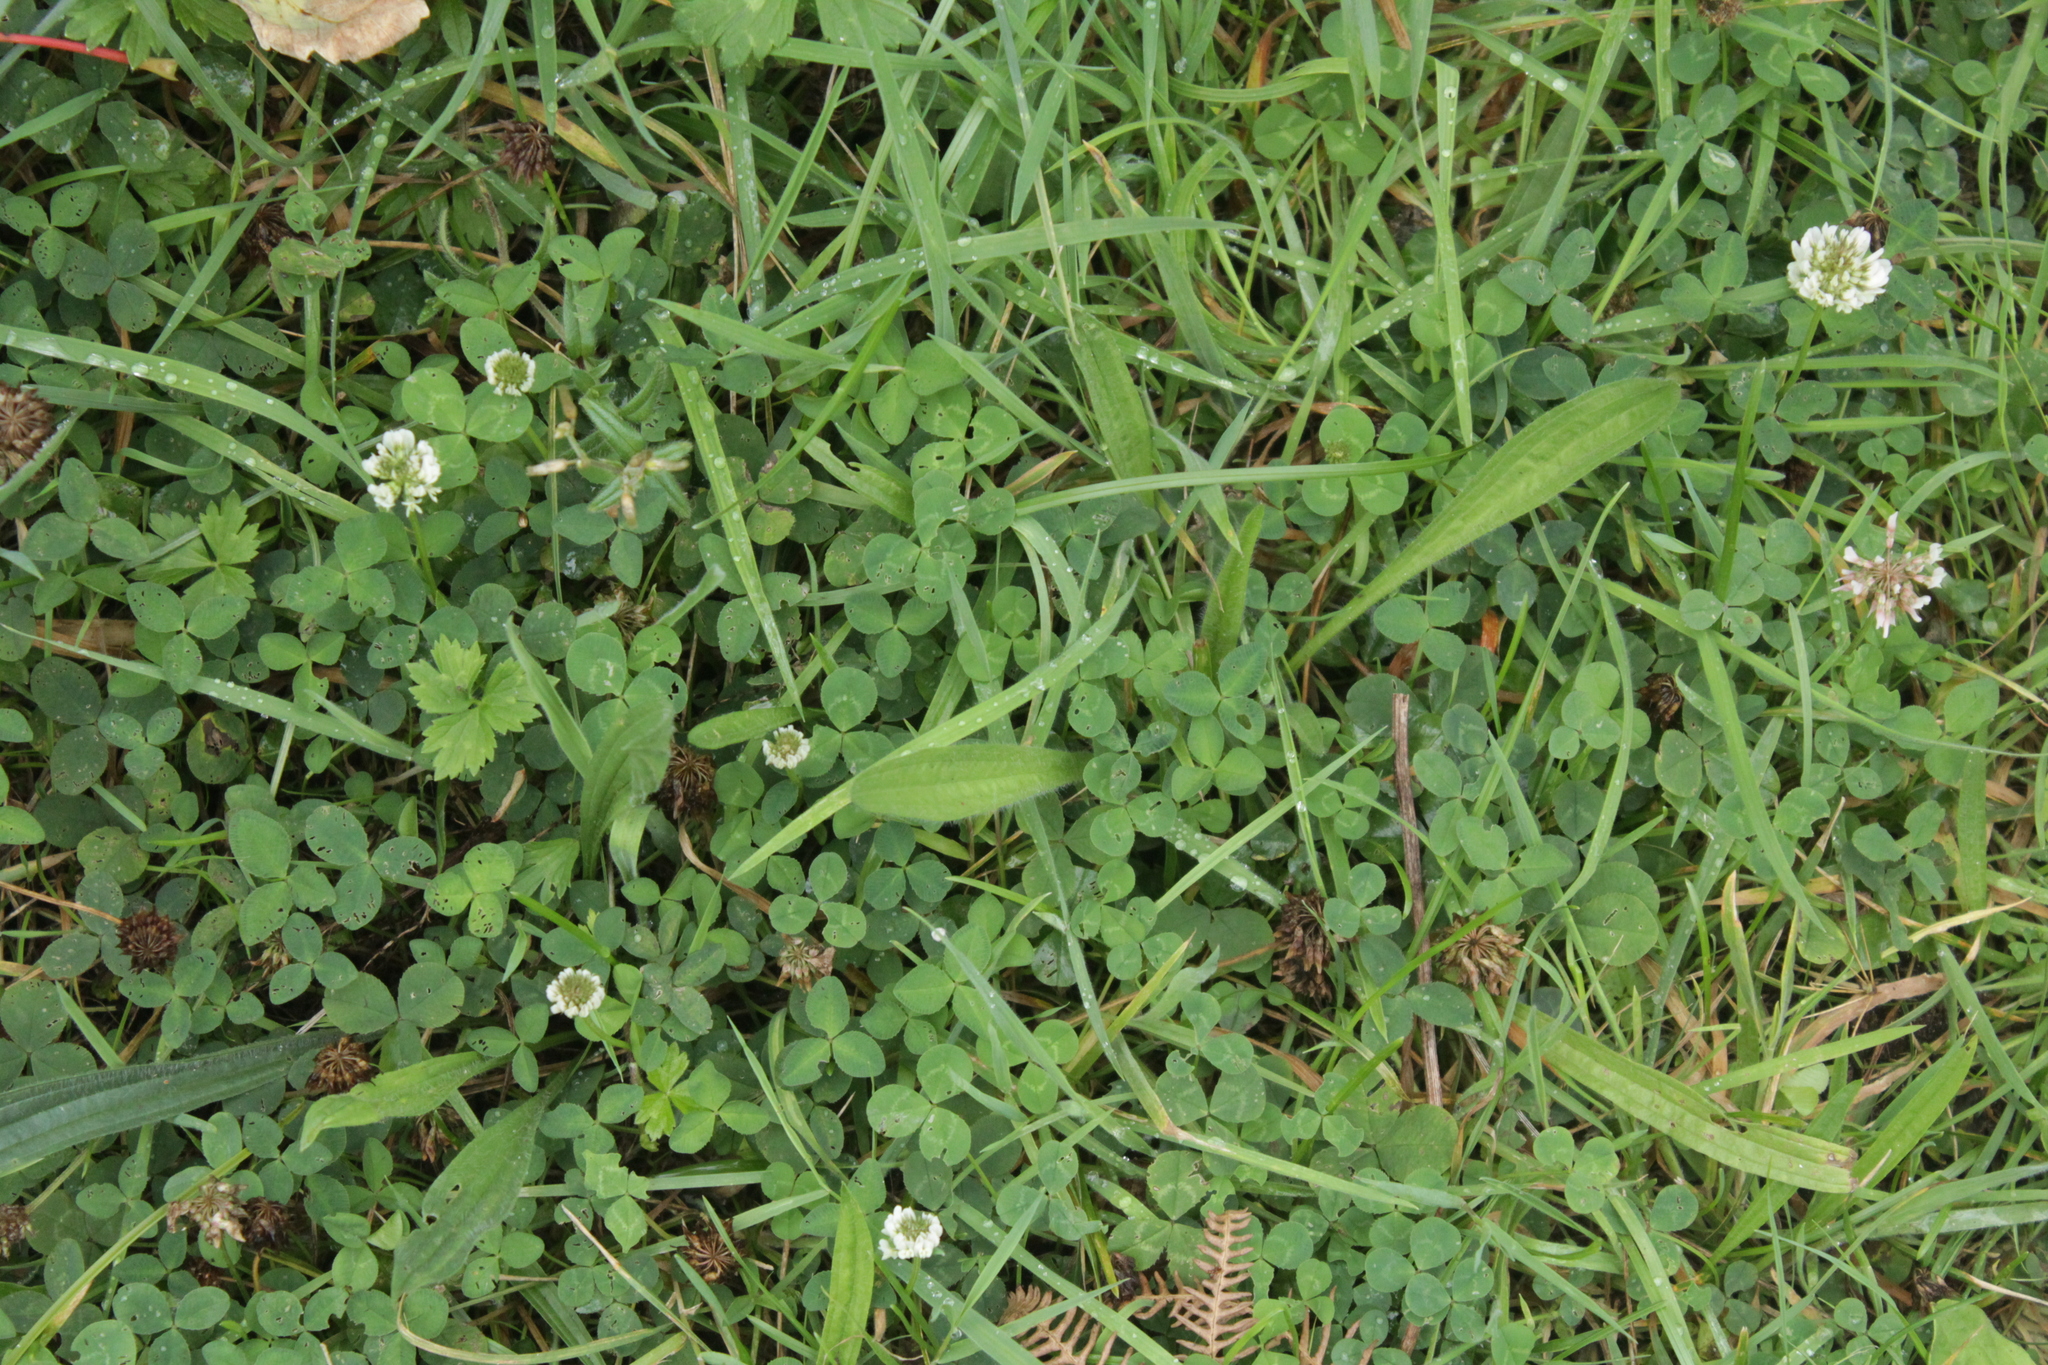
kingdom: Plantae
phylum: Tracheophyta
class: Magnoliopsida
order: Fabales
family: Fabaceae
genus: Trifolium
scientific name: Trifolium repens
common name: White clover
